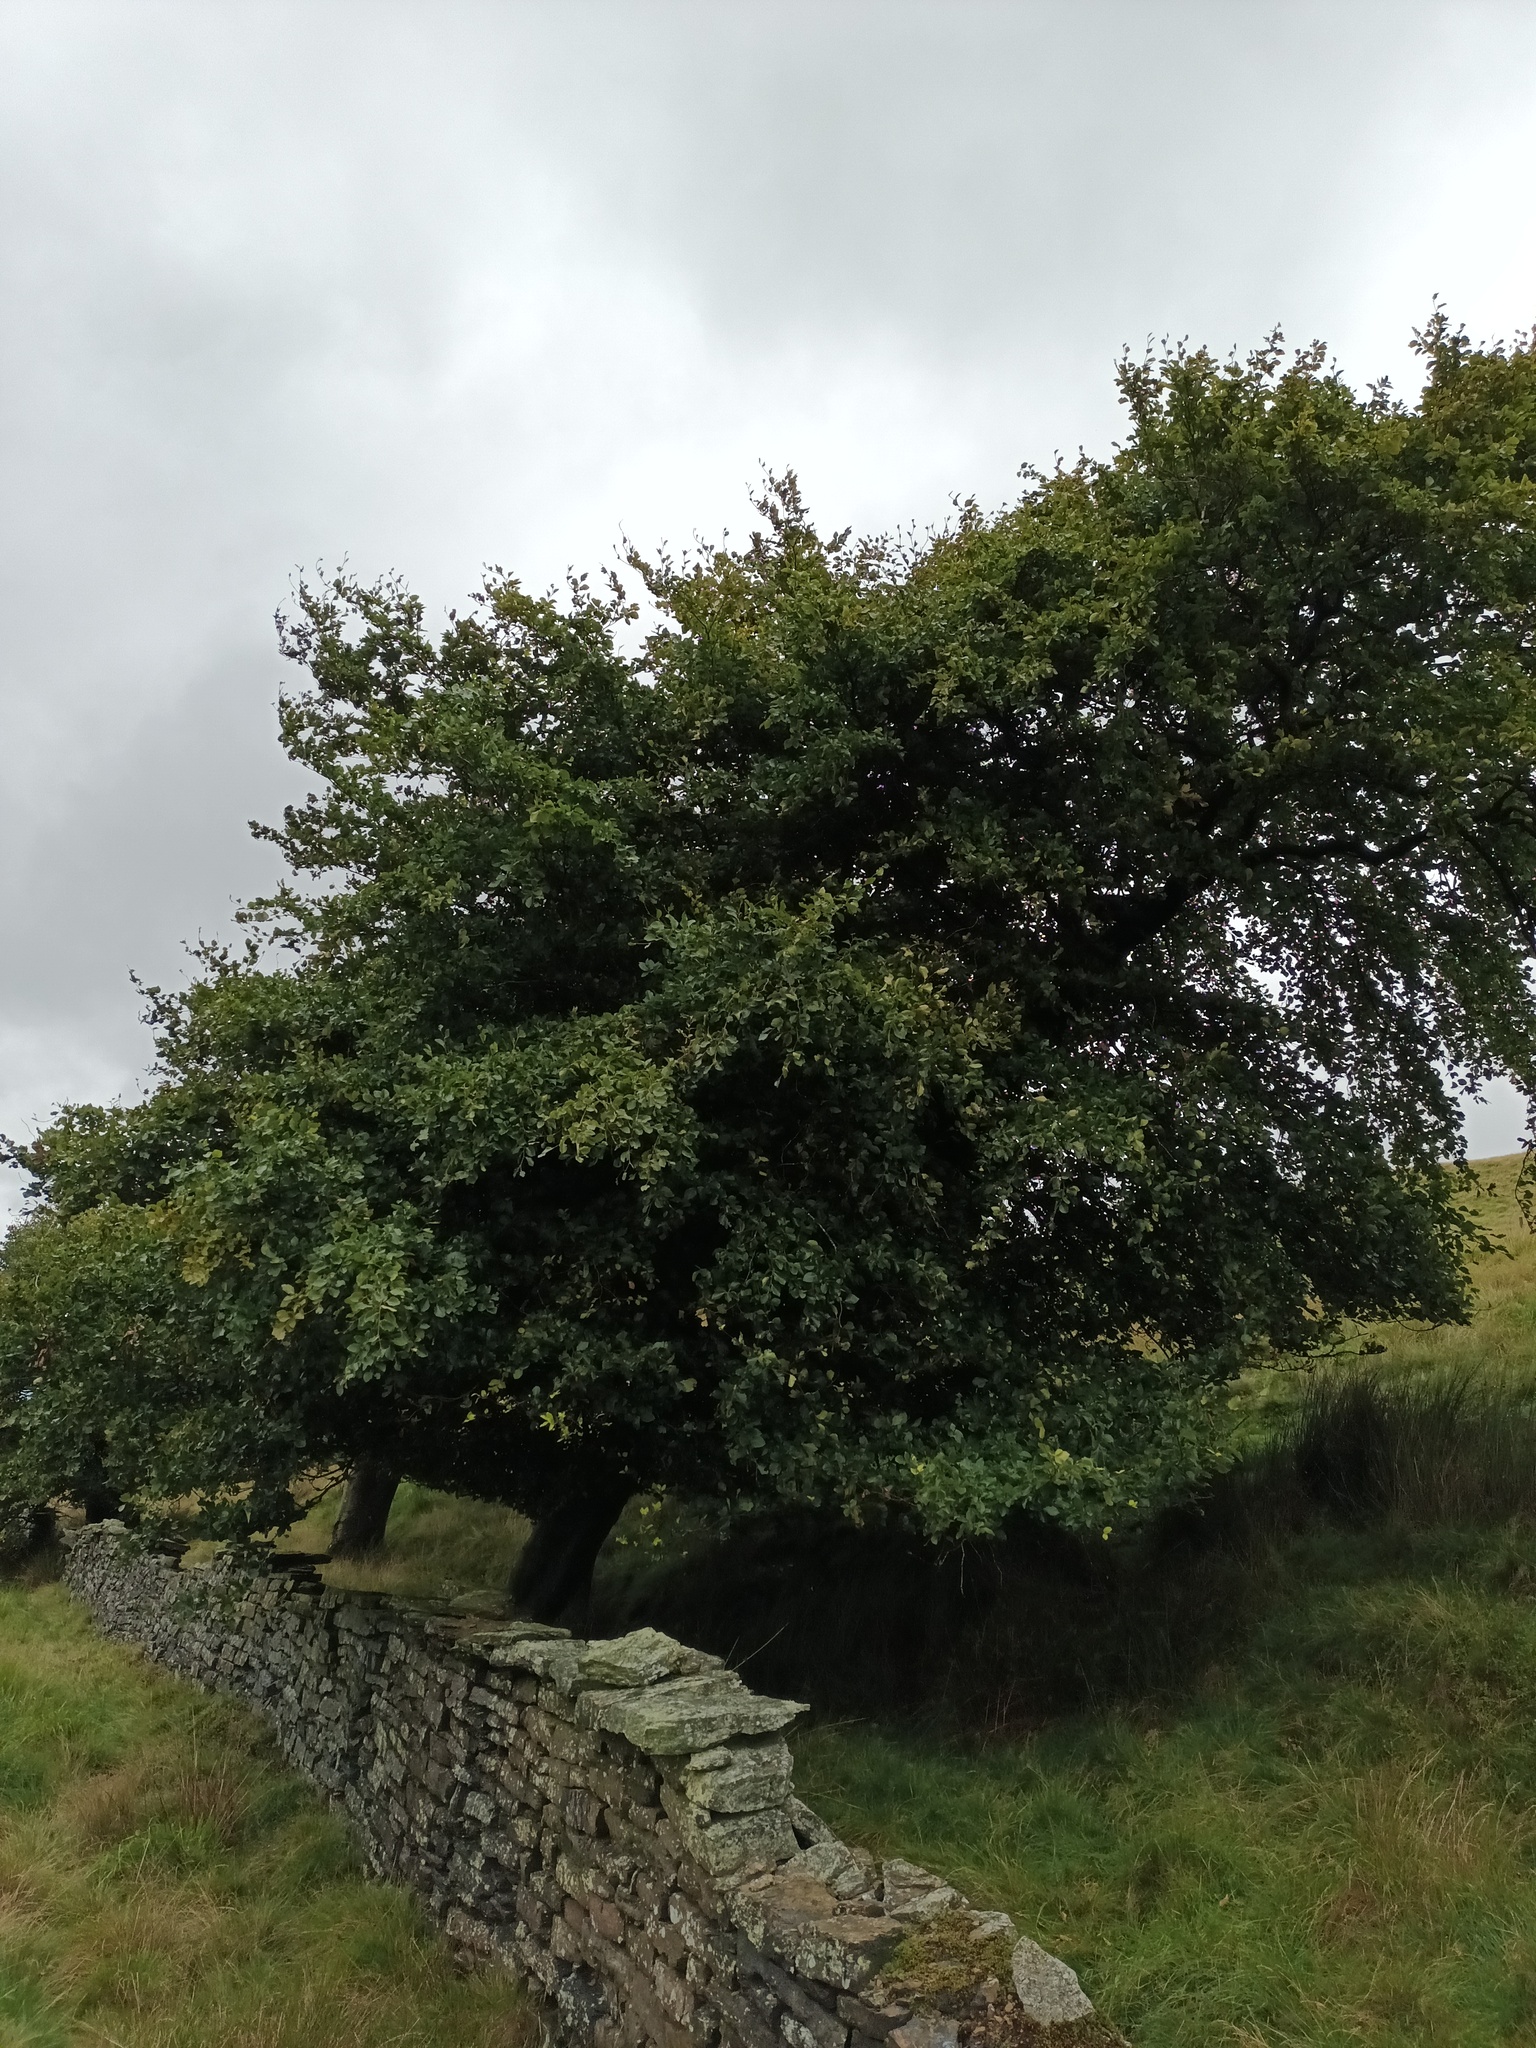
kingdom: Plantae
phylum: Tracheophyta
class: Magnoliopsida
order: Fagales
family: Fagaceae
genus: Fagus
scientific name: Fagus sylvatica
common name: Beech
